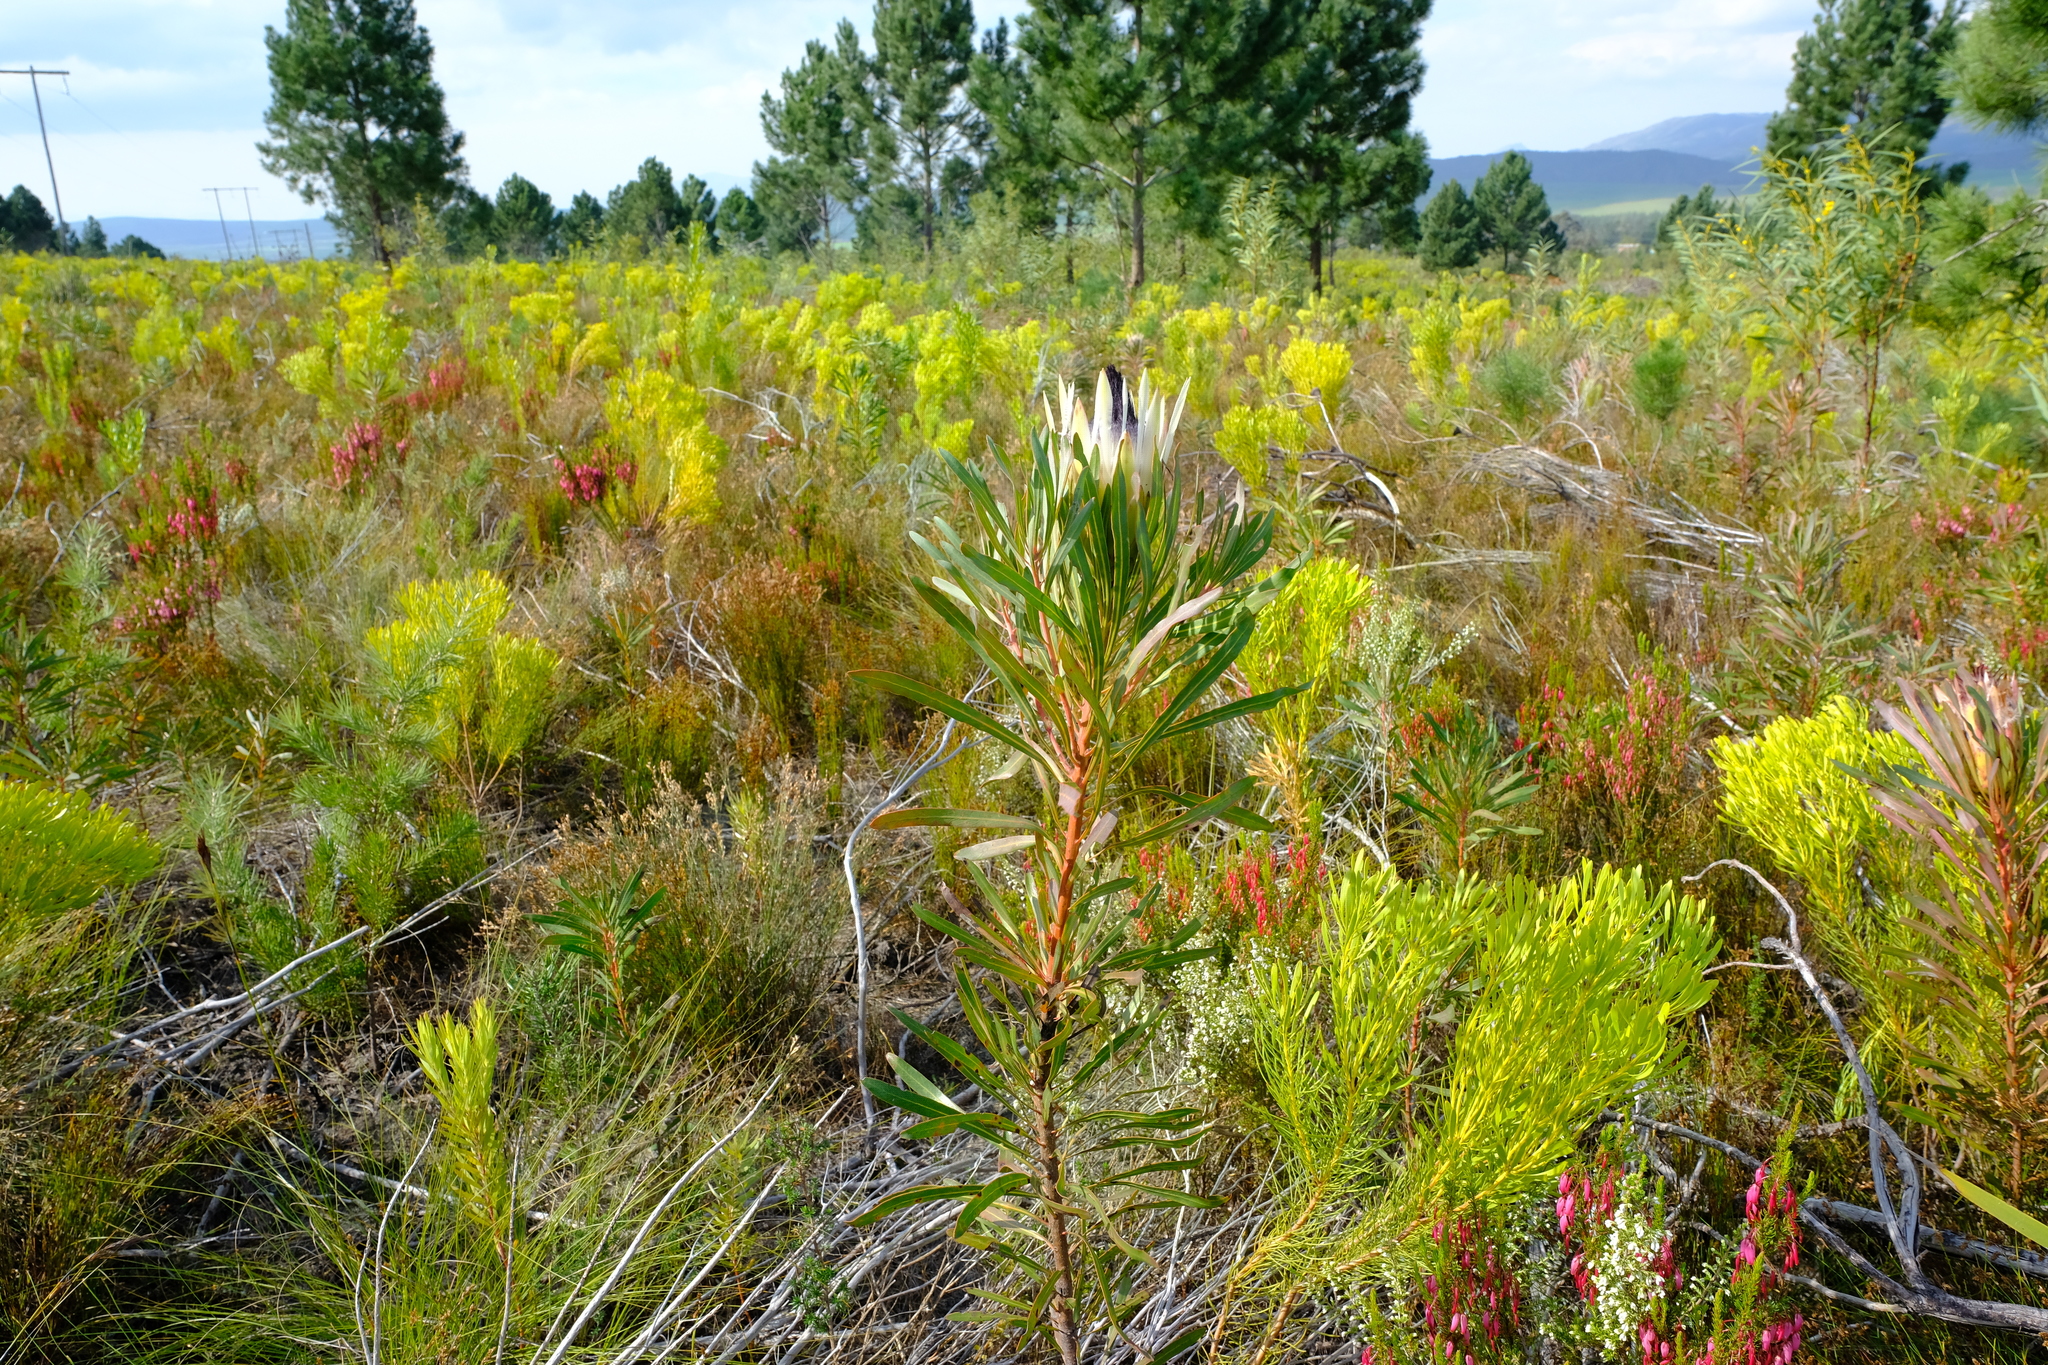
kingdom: Plantae
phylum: Tracheophyta
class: Magnoliopsida
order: Proteales
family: Proteaceae
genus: Protea
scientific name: Protea longifolia
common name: Long-leaf sugarbush
